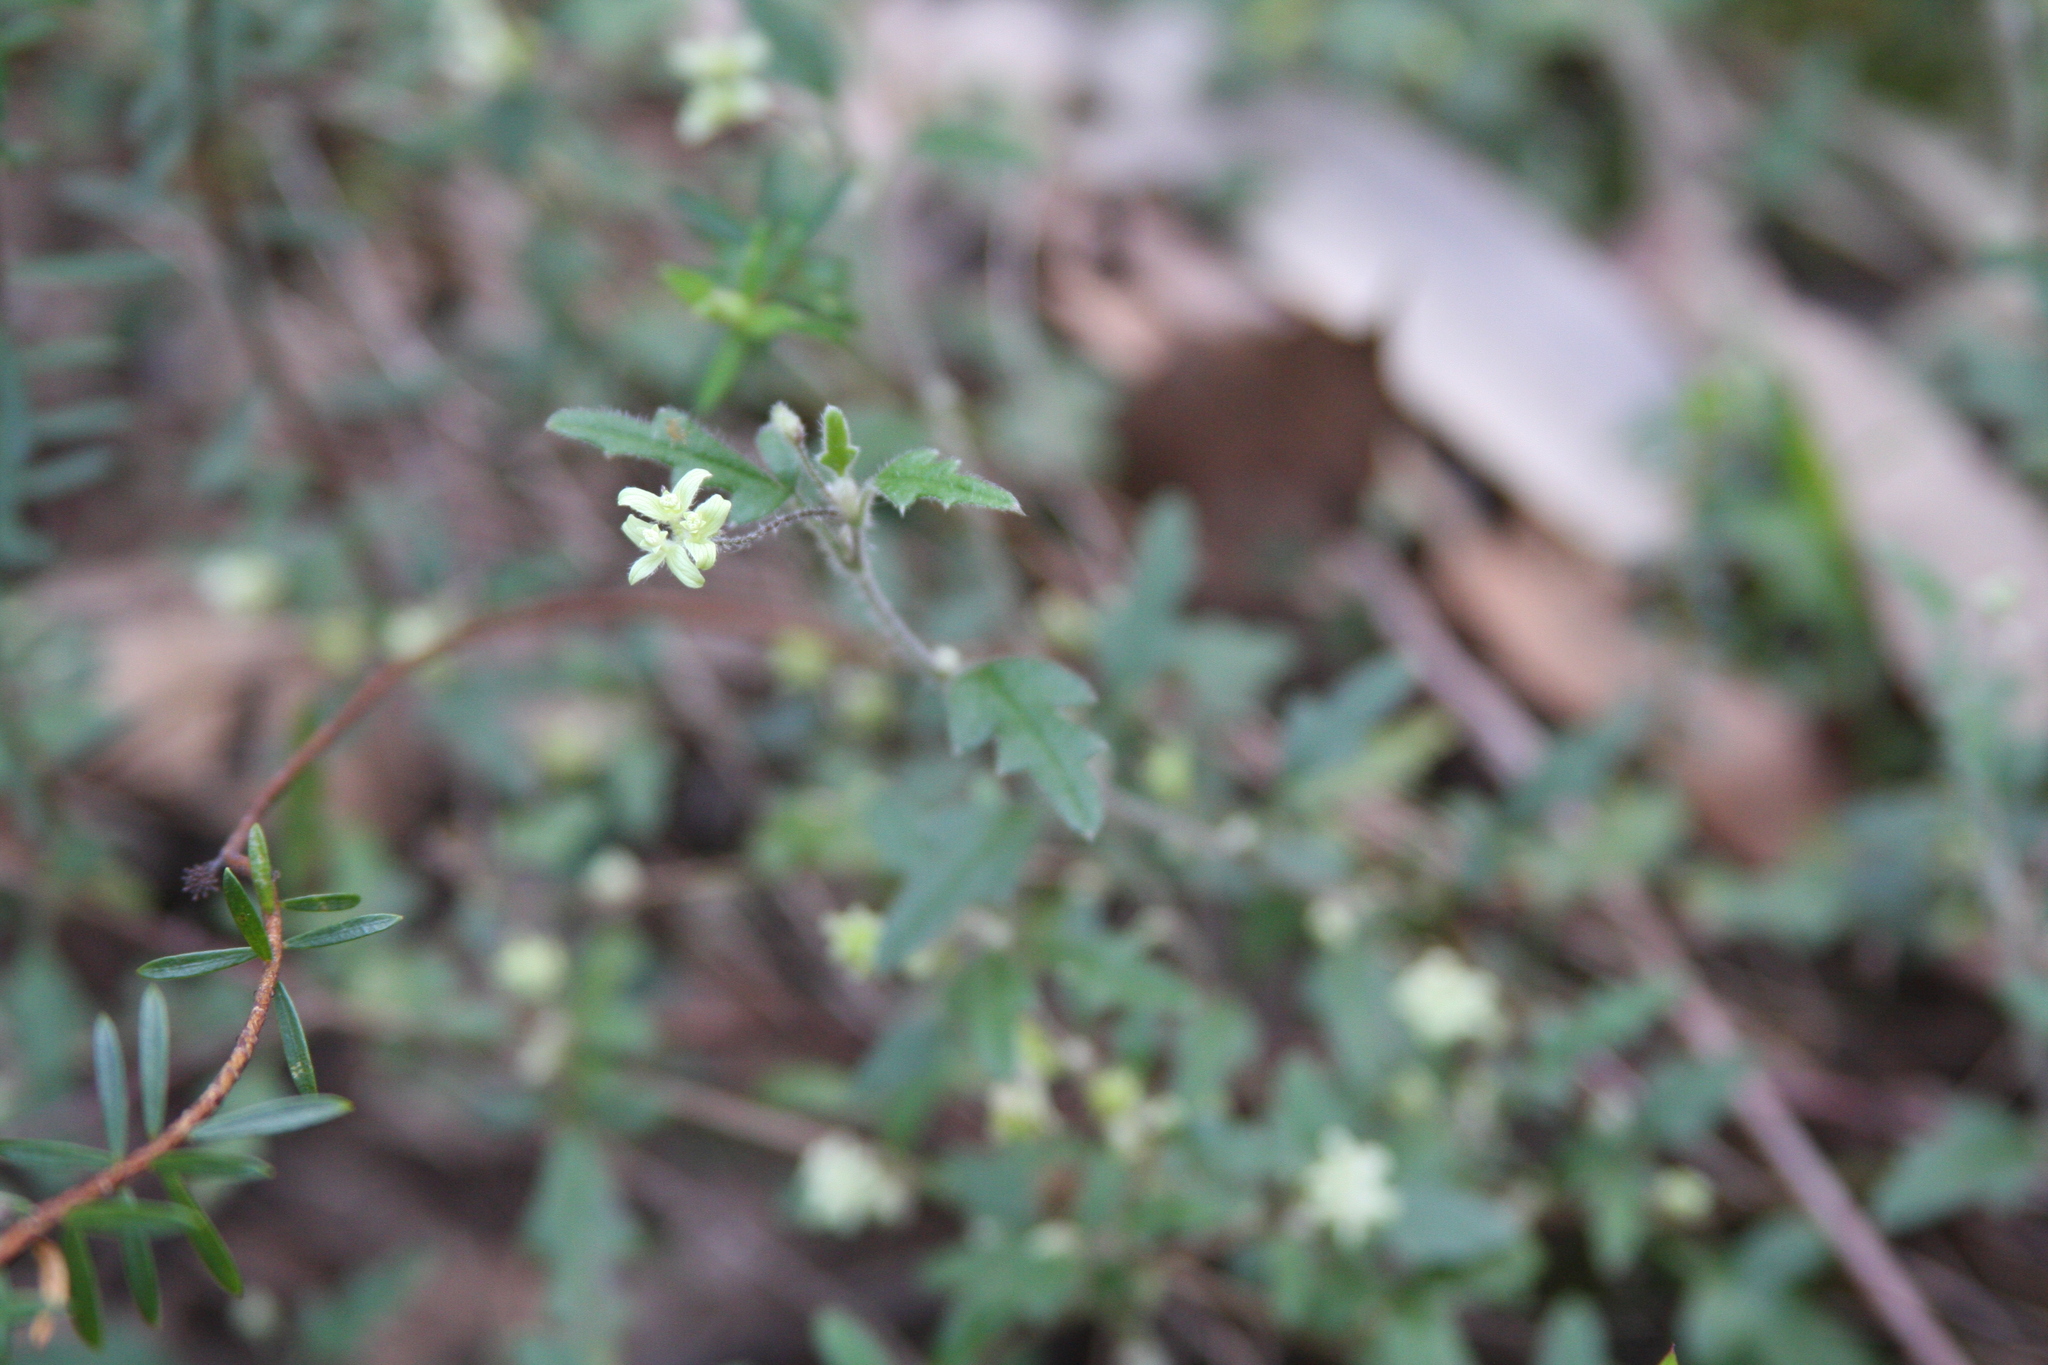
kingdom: Plantae
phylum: Tracheophyta
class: Magnoliopsida
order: Apiales
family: Apiaceae
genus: Xanthosia
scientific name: Xanthosia pilosa
